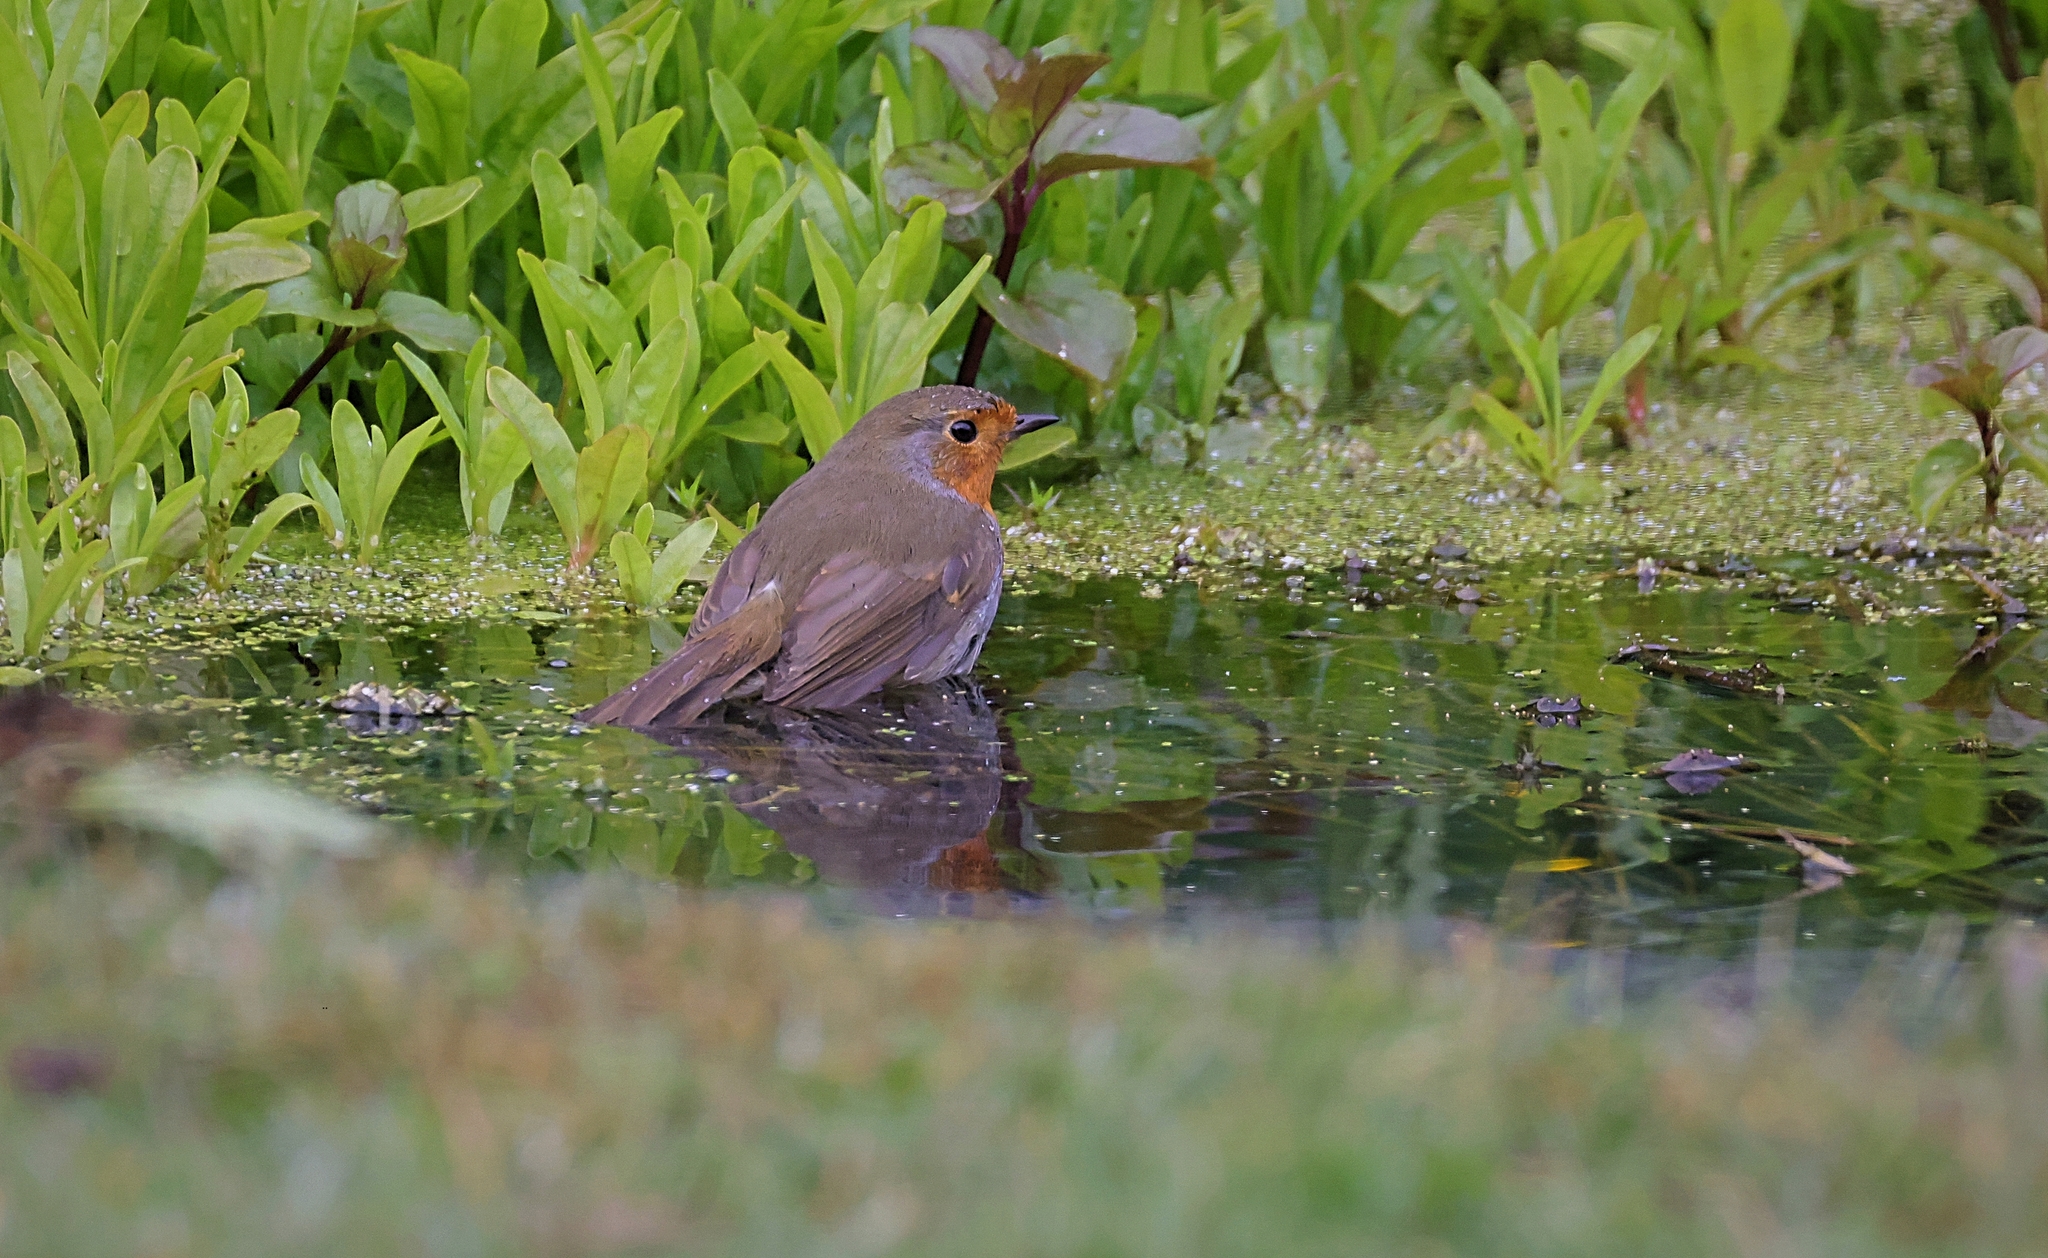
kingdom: Animalia
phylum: Chordata
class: Aves
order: Passeriformes
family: Muscicapidae
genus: Erithacus
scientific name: Erithacus rubecula
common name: European robin
